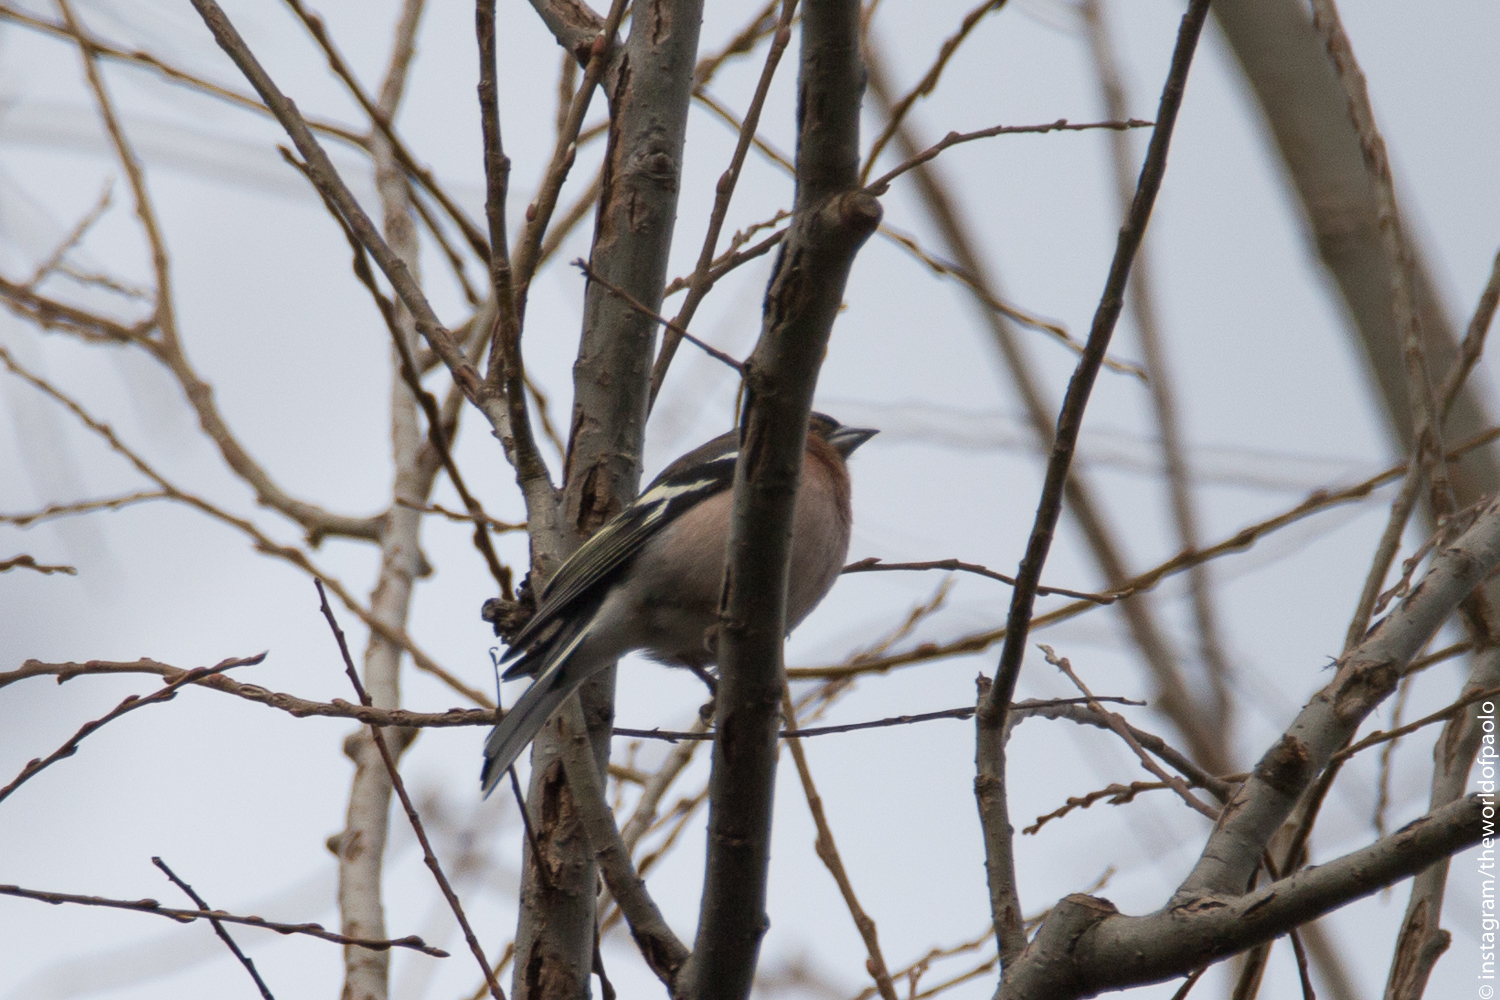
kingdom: Animalia
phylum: Chordata
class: Aves
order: Passeriformes
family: Fringillidae
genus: Fringilla
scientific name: Fringilla coelebs
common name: Common chaffinch
